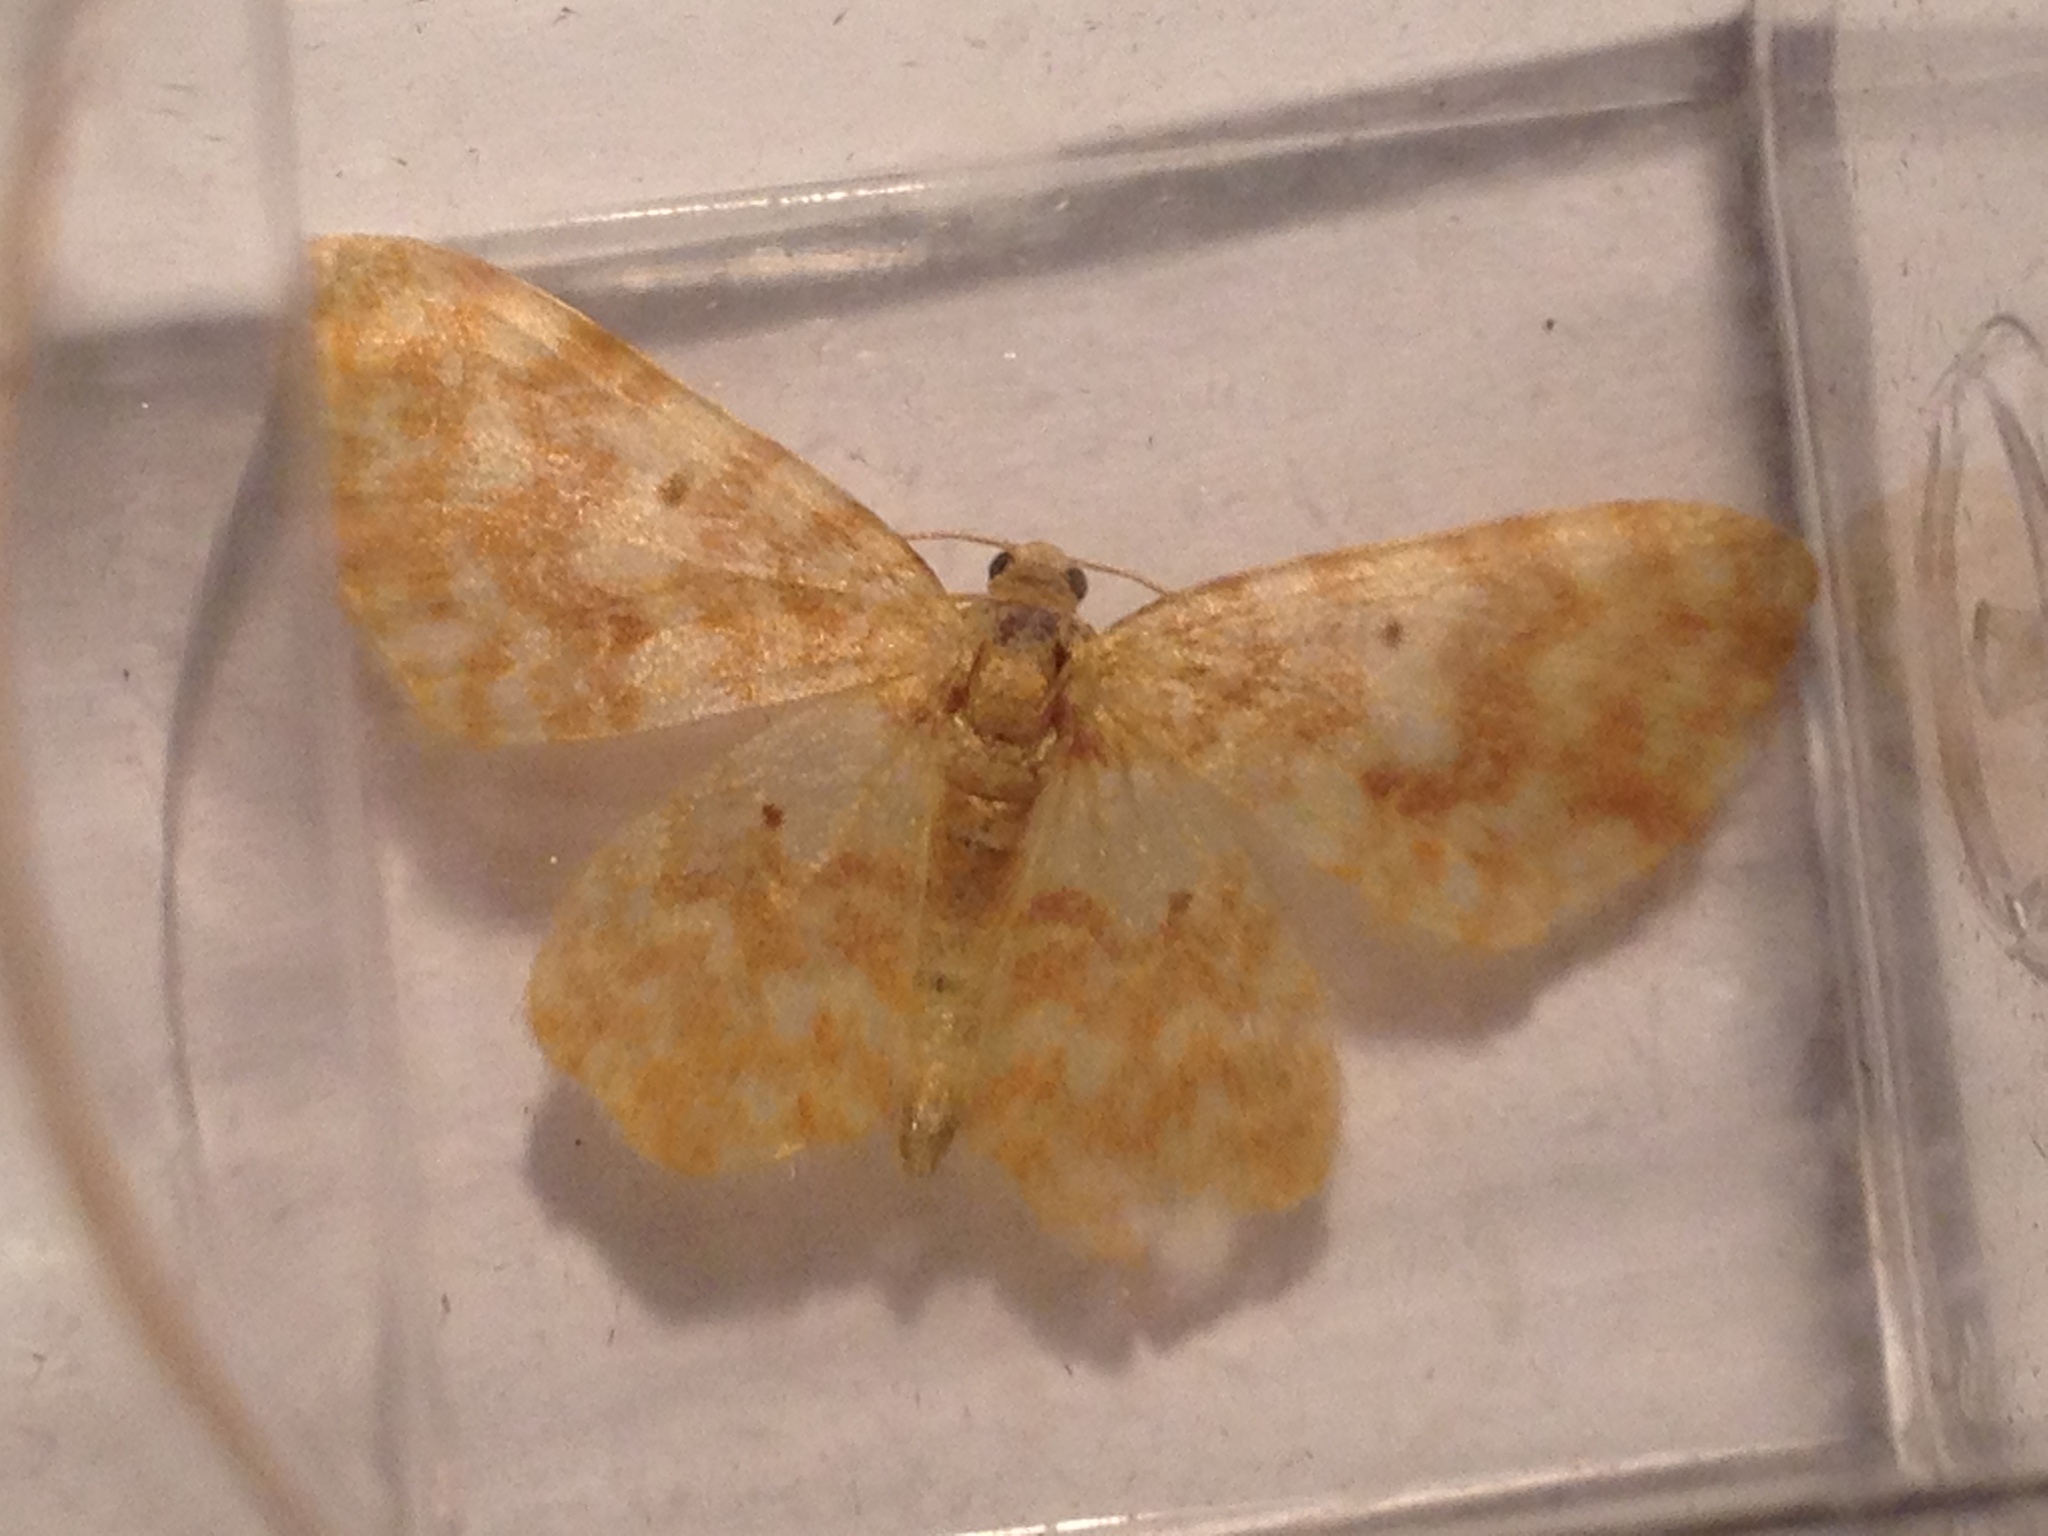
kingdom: Animalia
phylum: Arthropoda
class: Insecta
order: Lepidoptera
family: Geometridae
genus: Hydrelia
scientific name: Hydrelia flammeolaria
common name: Small yellow wave
